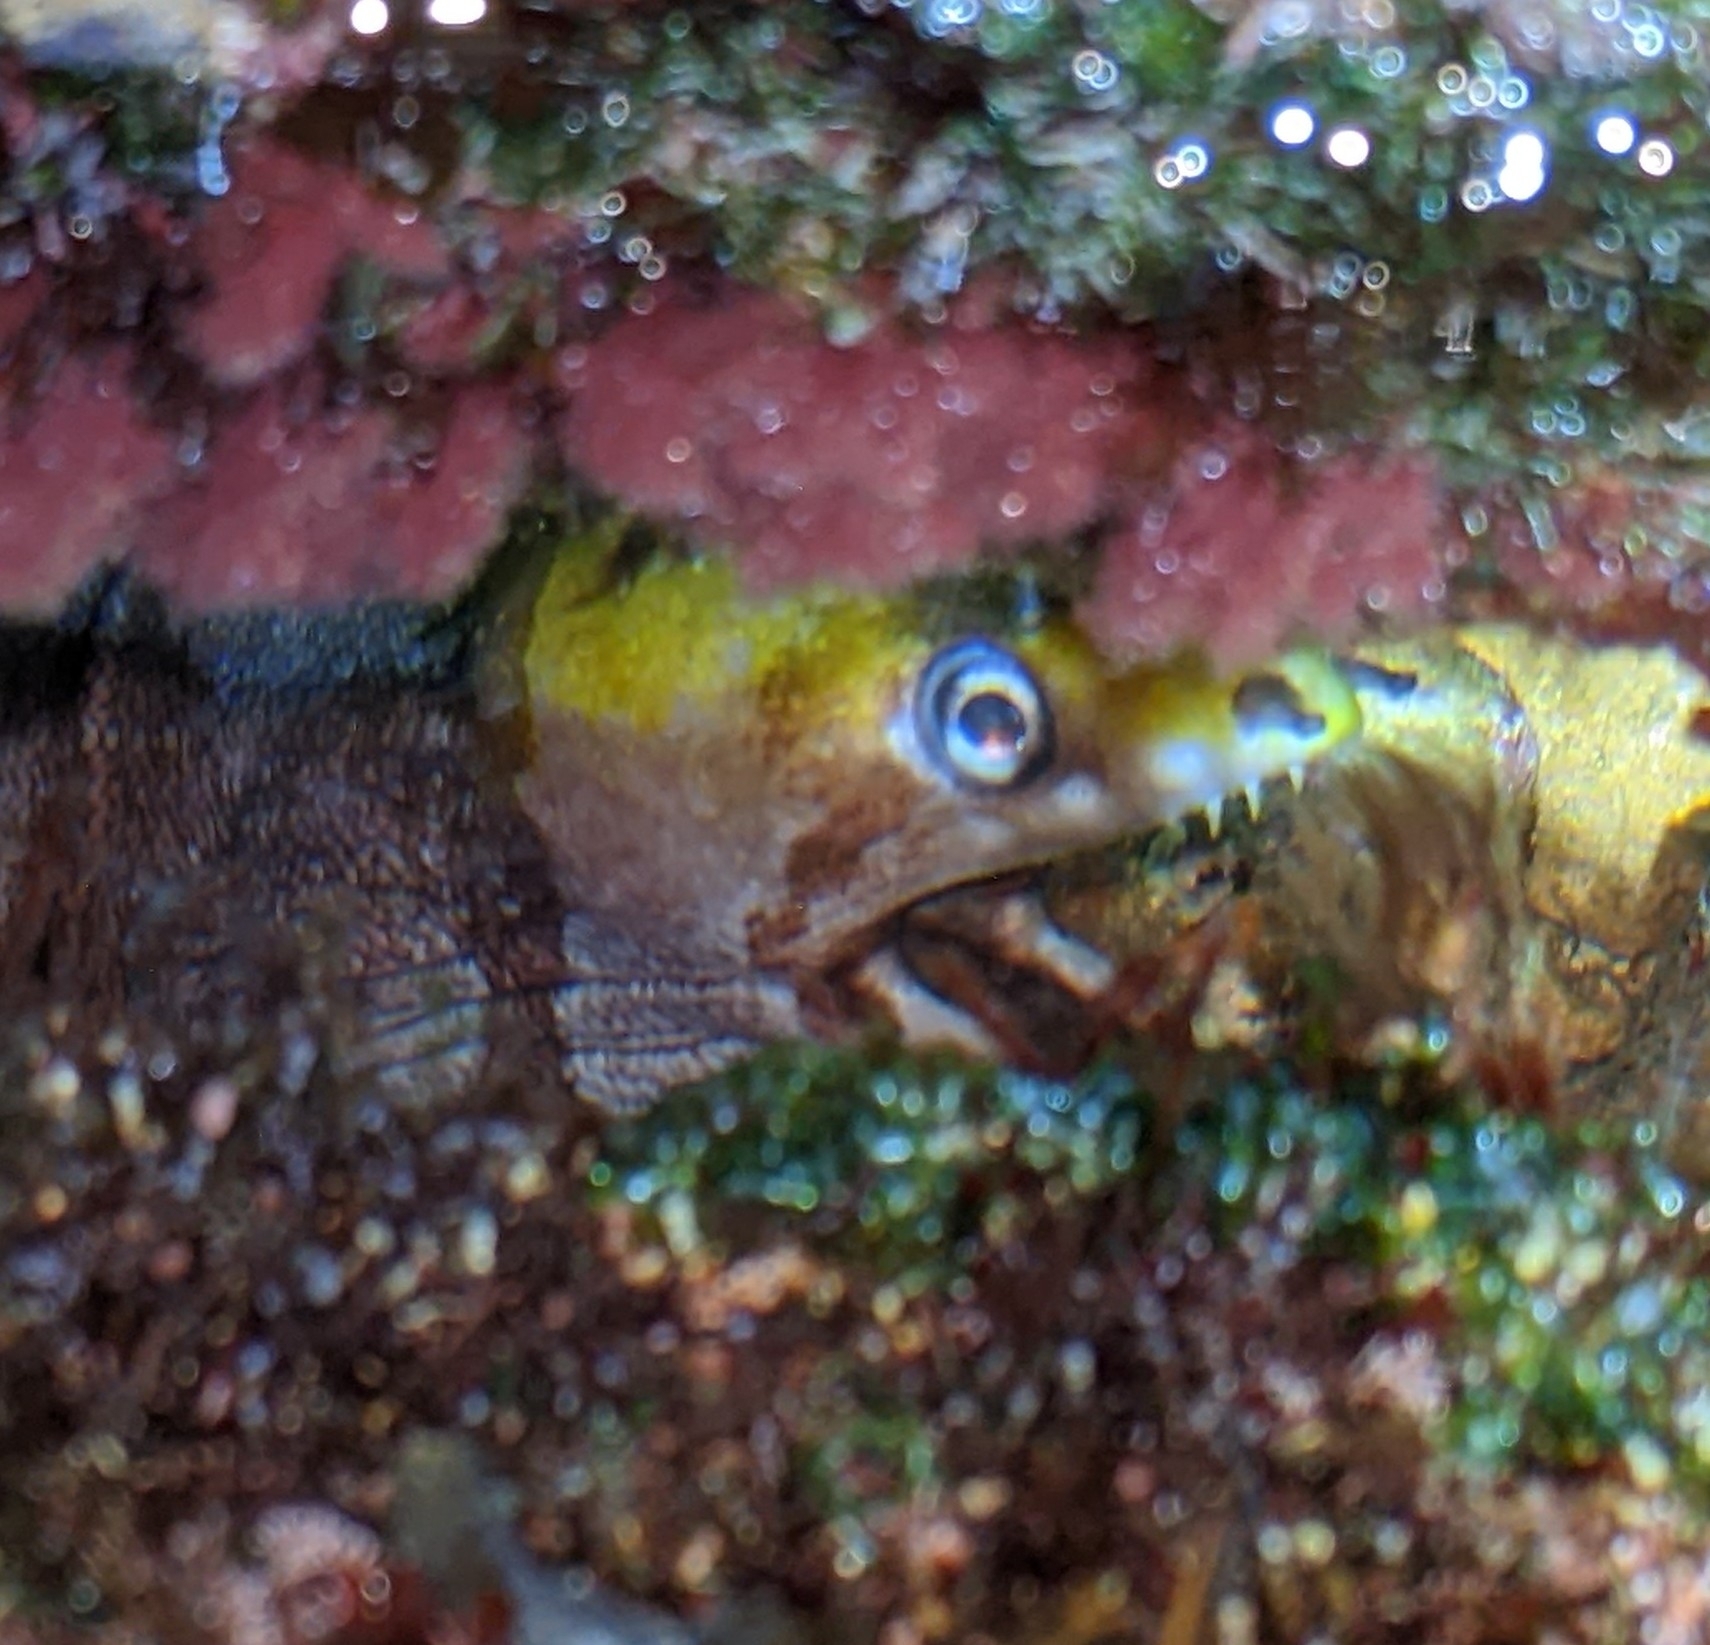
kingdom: Animalia
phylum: Chordata
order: Anguilliformes
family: Muraenidae
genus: Gymnothorax
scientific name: Gymnothorax rueppelliae
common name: Banded moray
